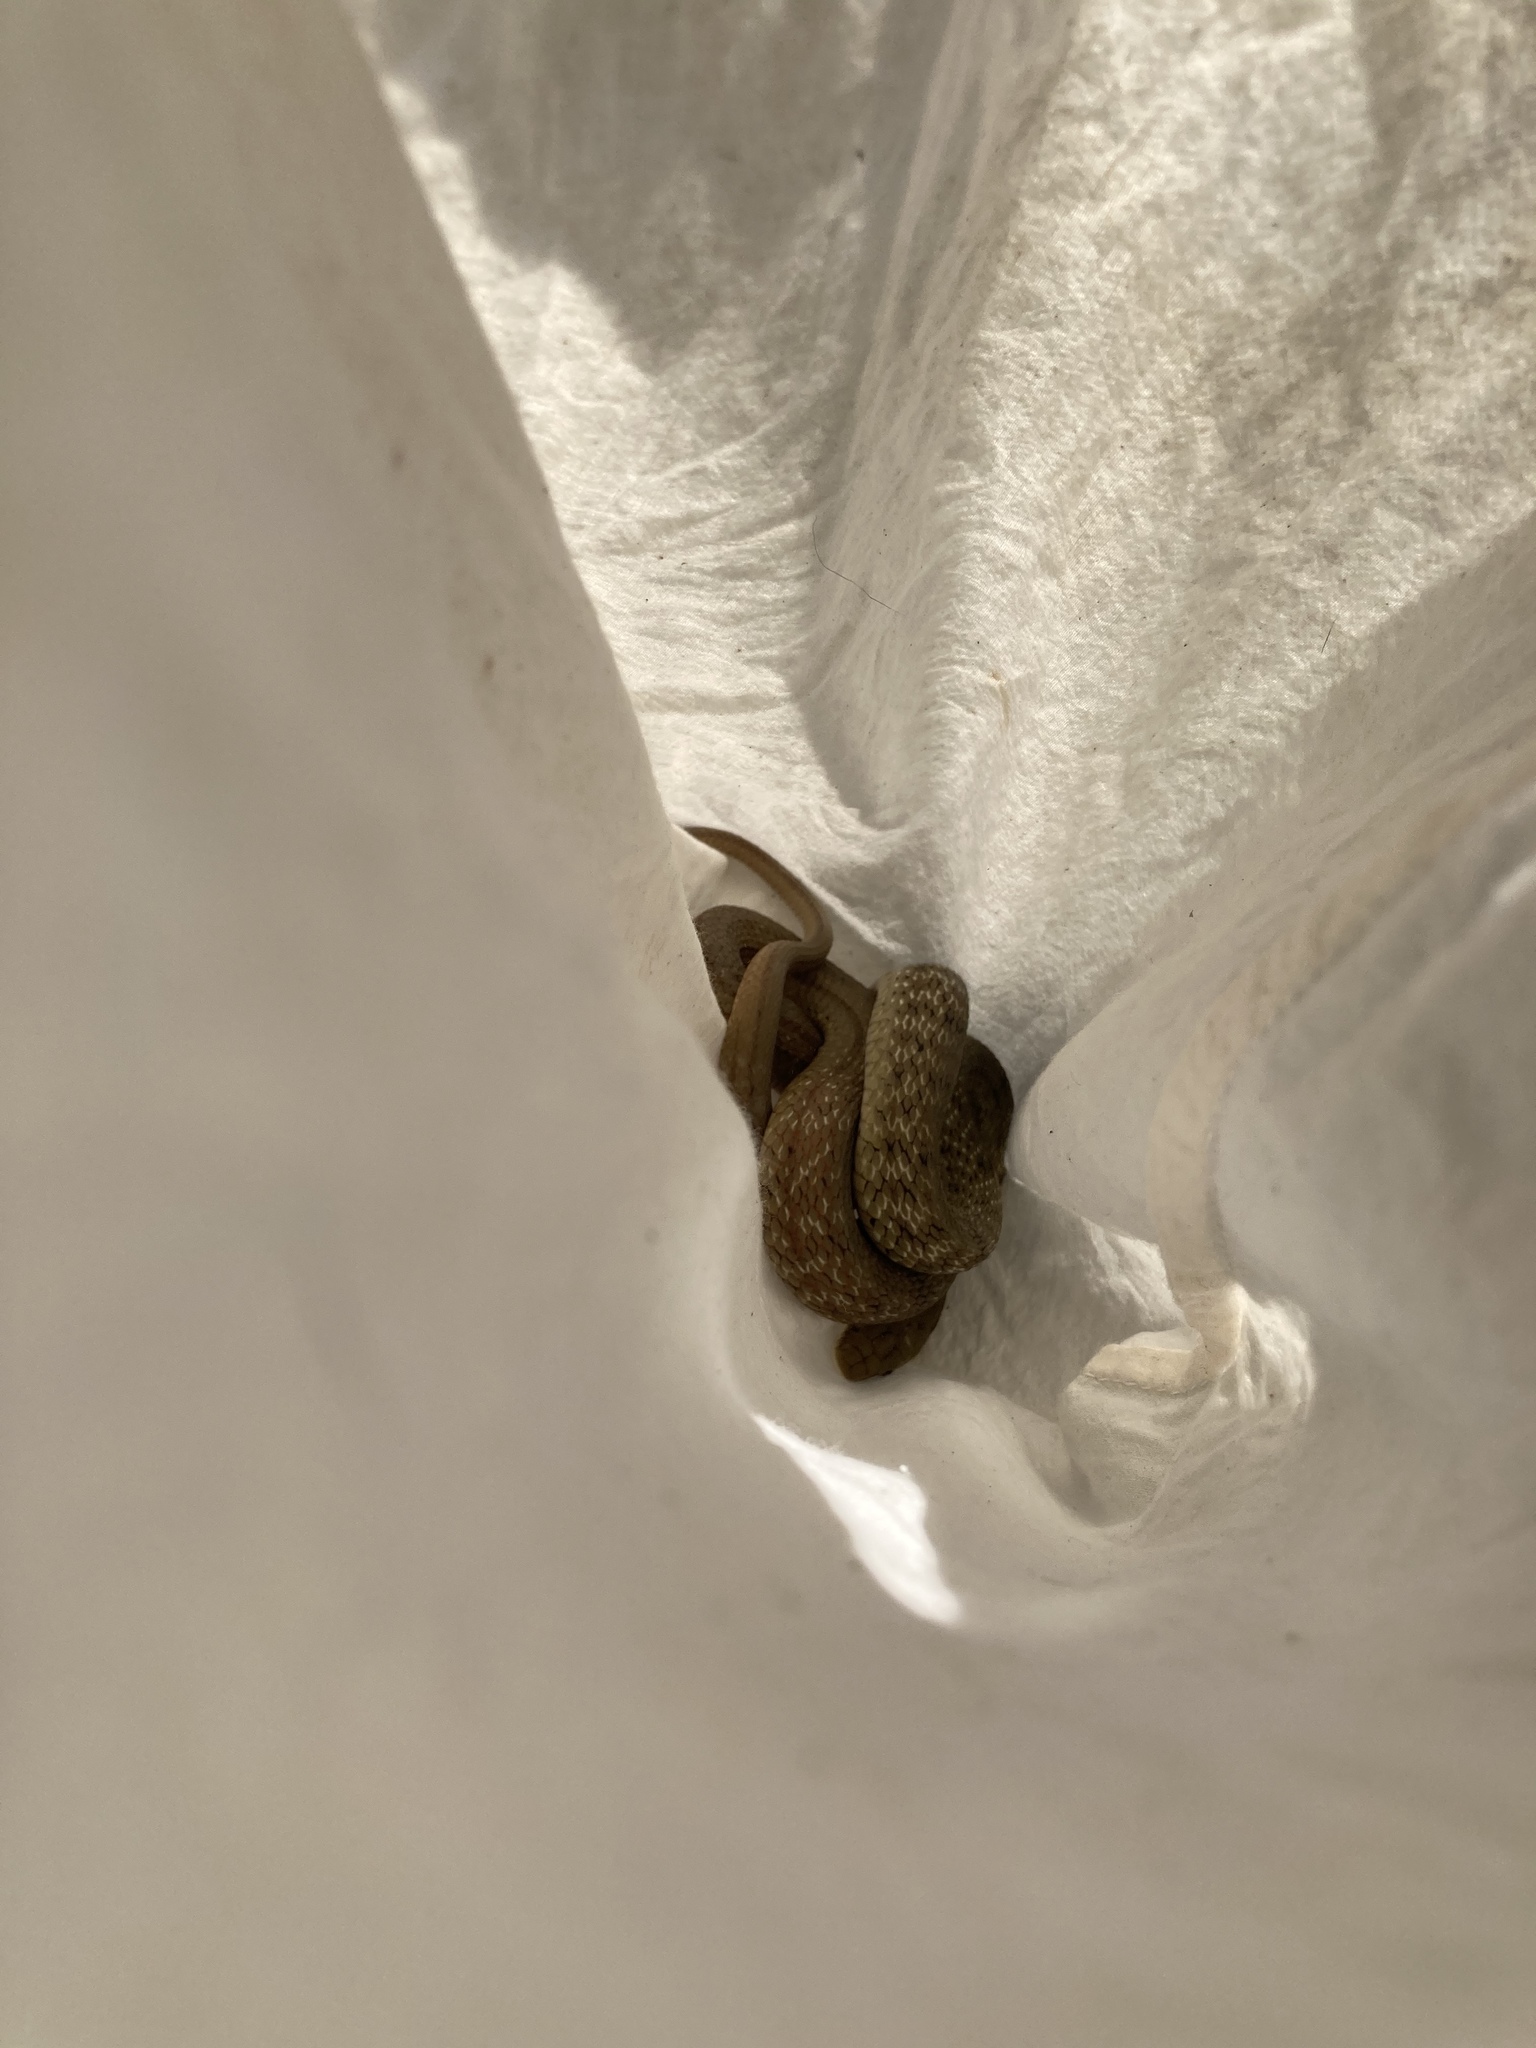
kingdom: Animalia
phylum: Chordata
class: Squamata
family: Colubridae
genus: Elaphe
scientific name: Elaphe carinata
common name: Taiwan stink snake
